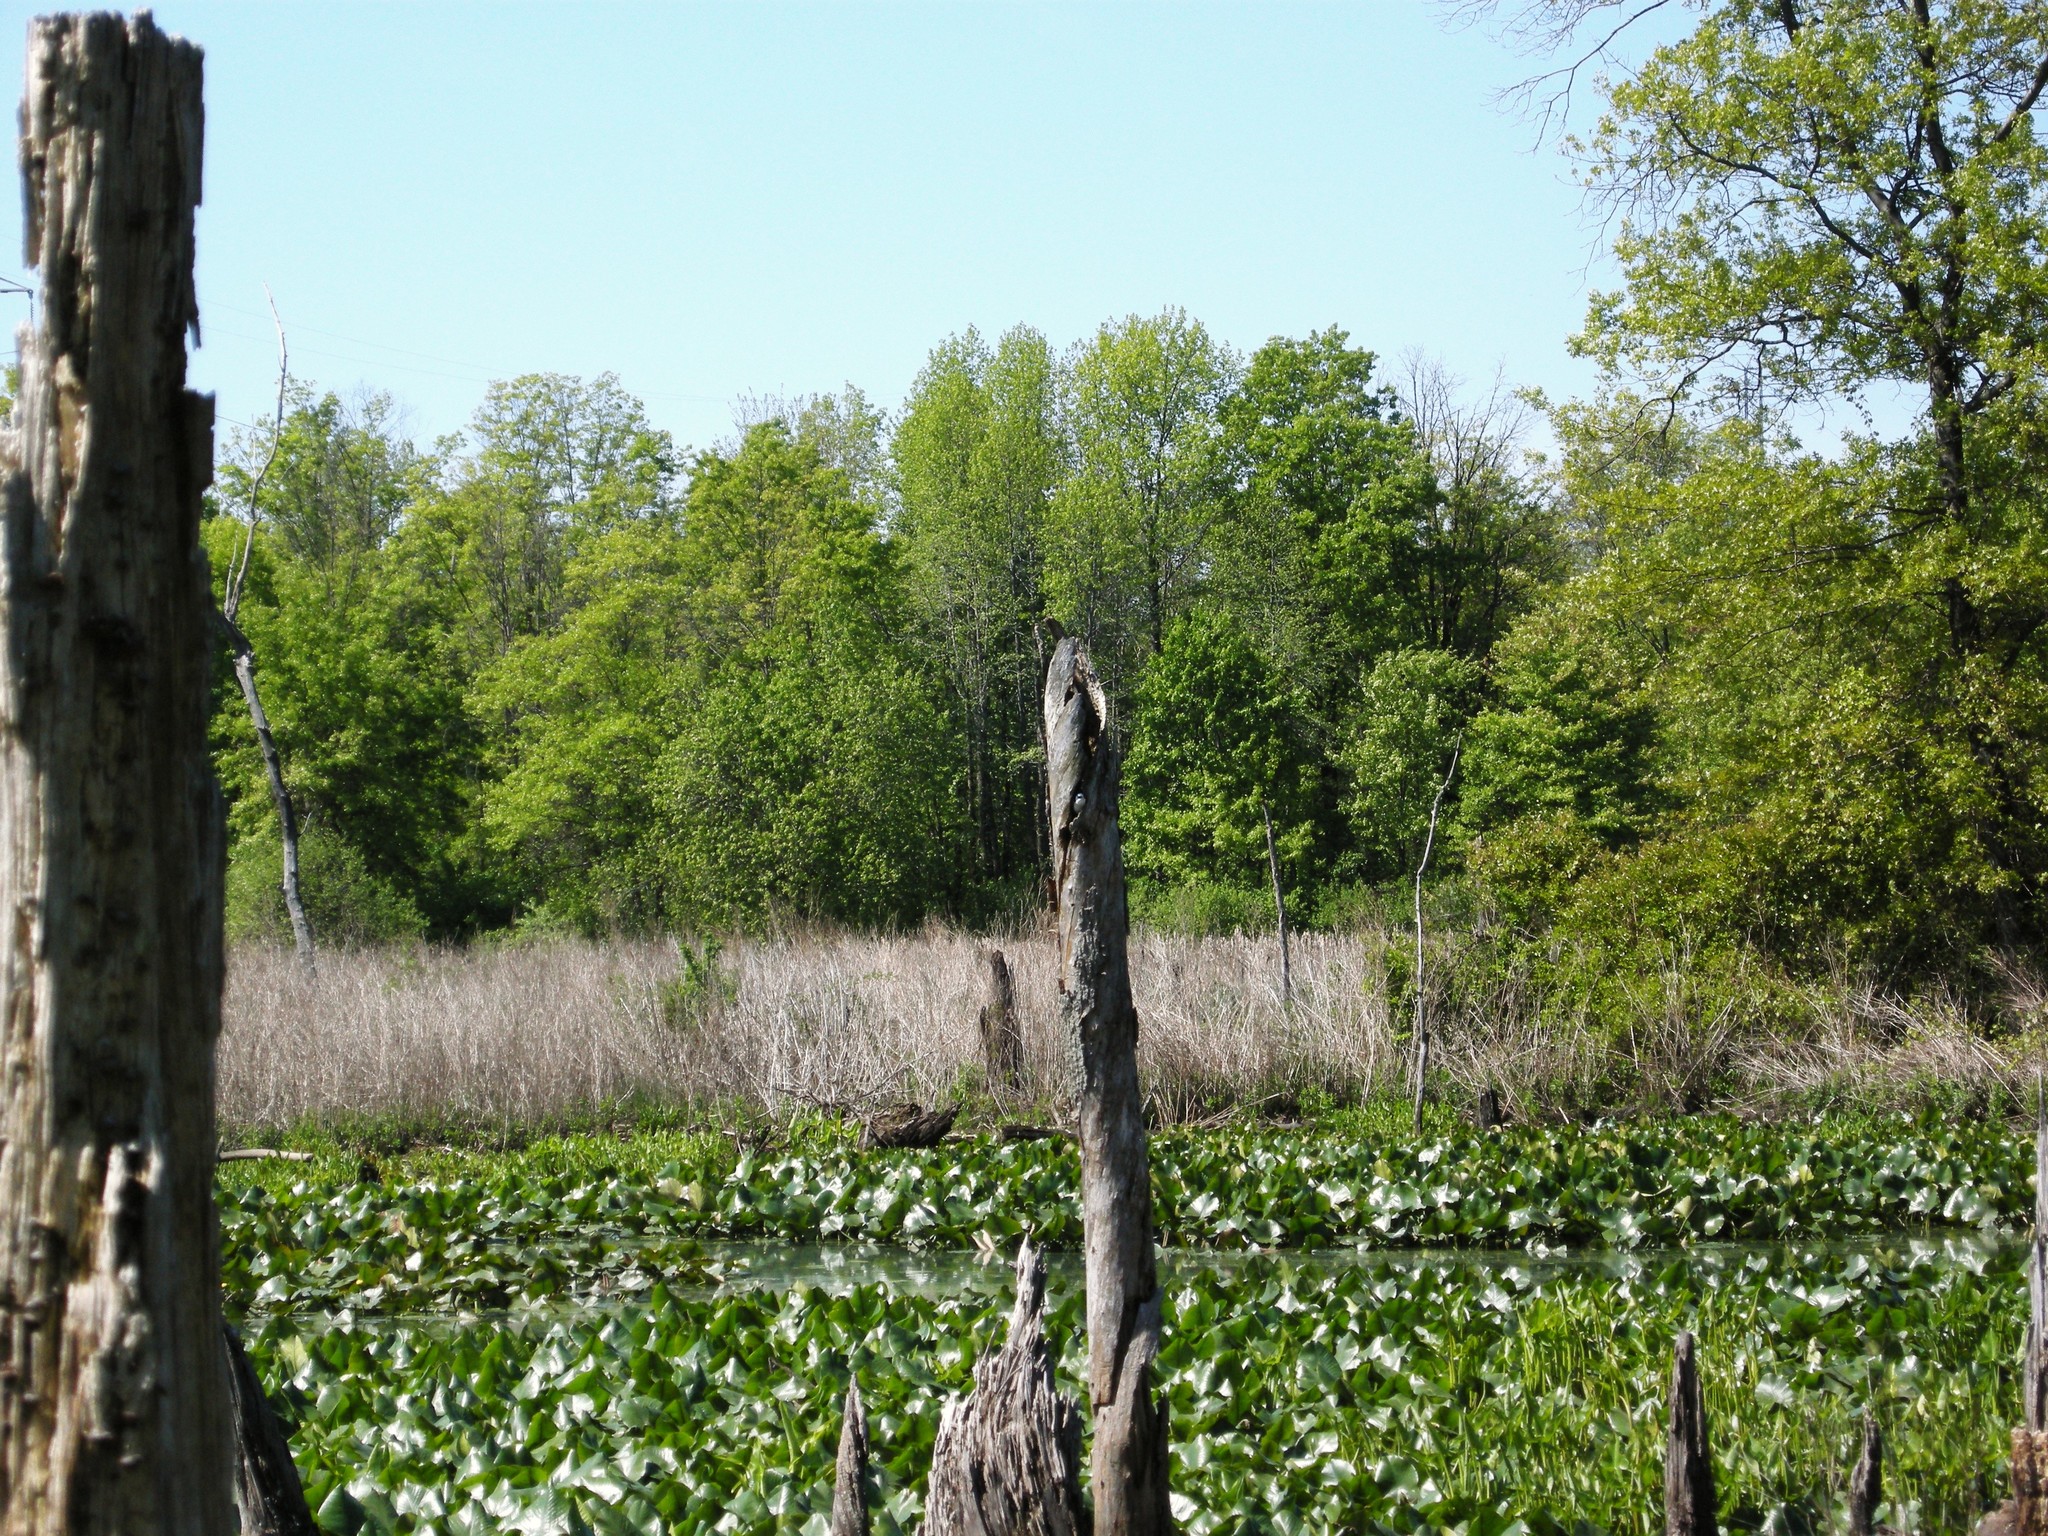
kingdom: Animalia
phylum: Chordata
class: Aves
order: Passeriformes
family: Hirundinidae
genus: Tachycineta
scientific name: Tachycineta bicolor
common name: Tree swallow
